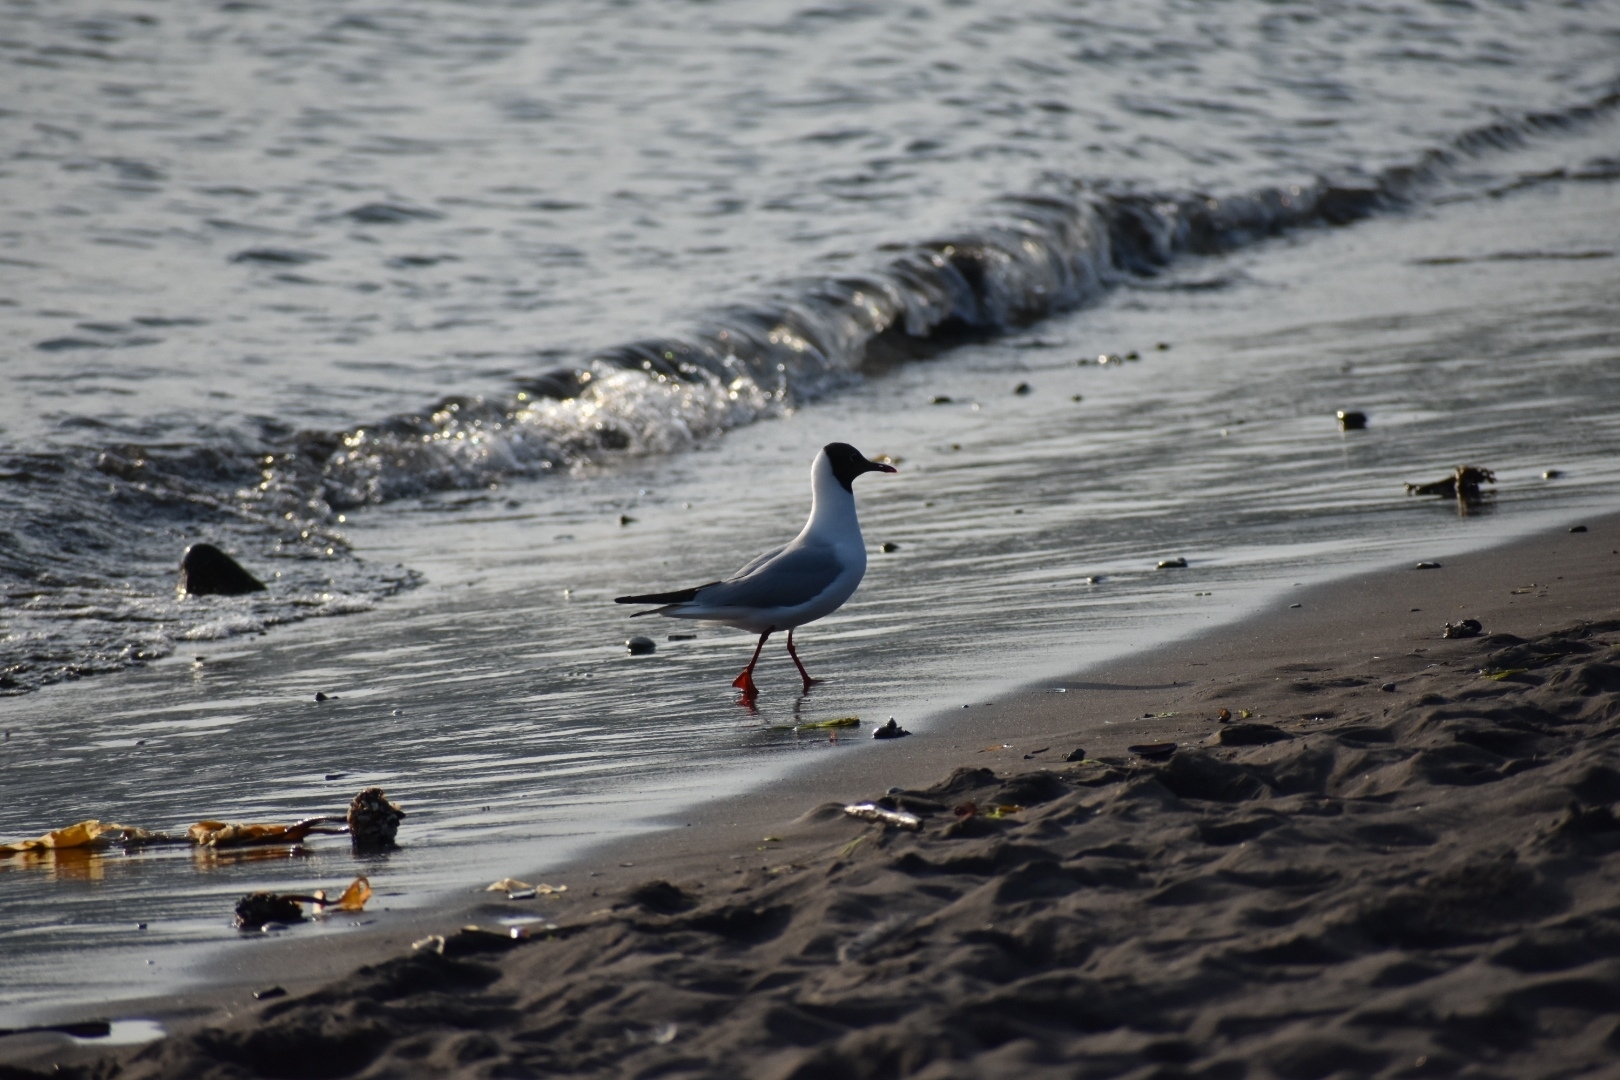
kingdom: Animalia
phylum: Chordata
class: Aves
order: Charadriiformes
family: Laridae
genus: Chroicocephalus
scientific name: Chroicocephalus ridibundus
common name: Black-headed gull
